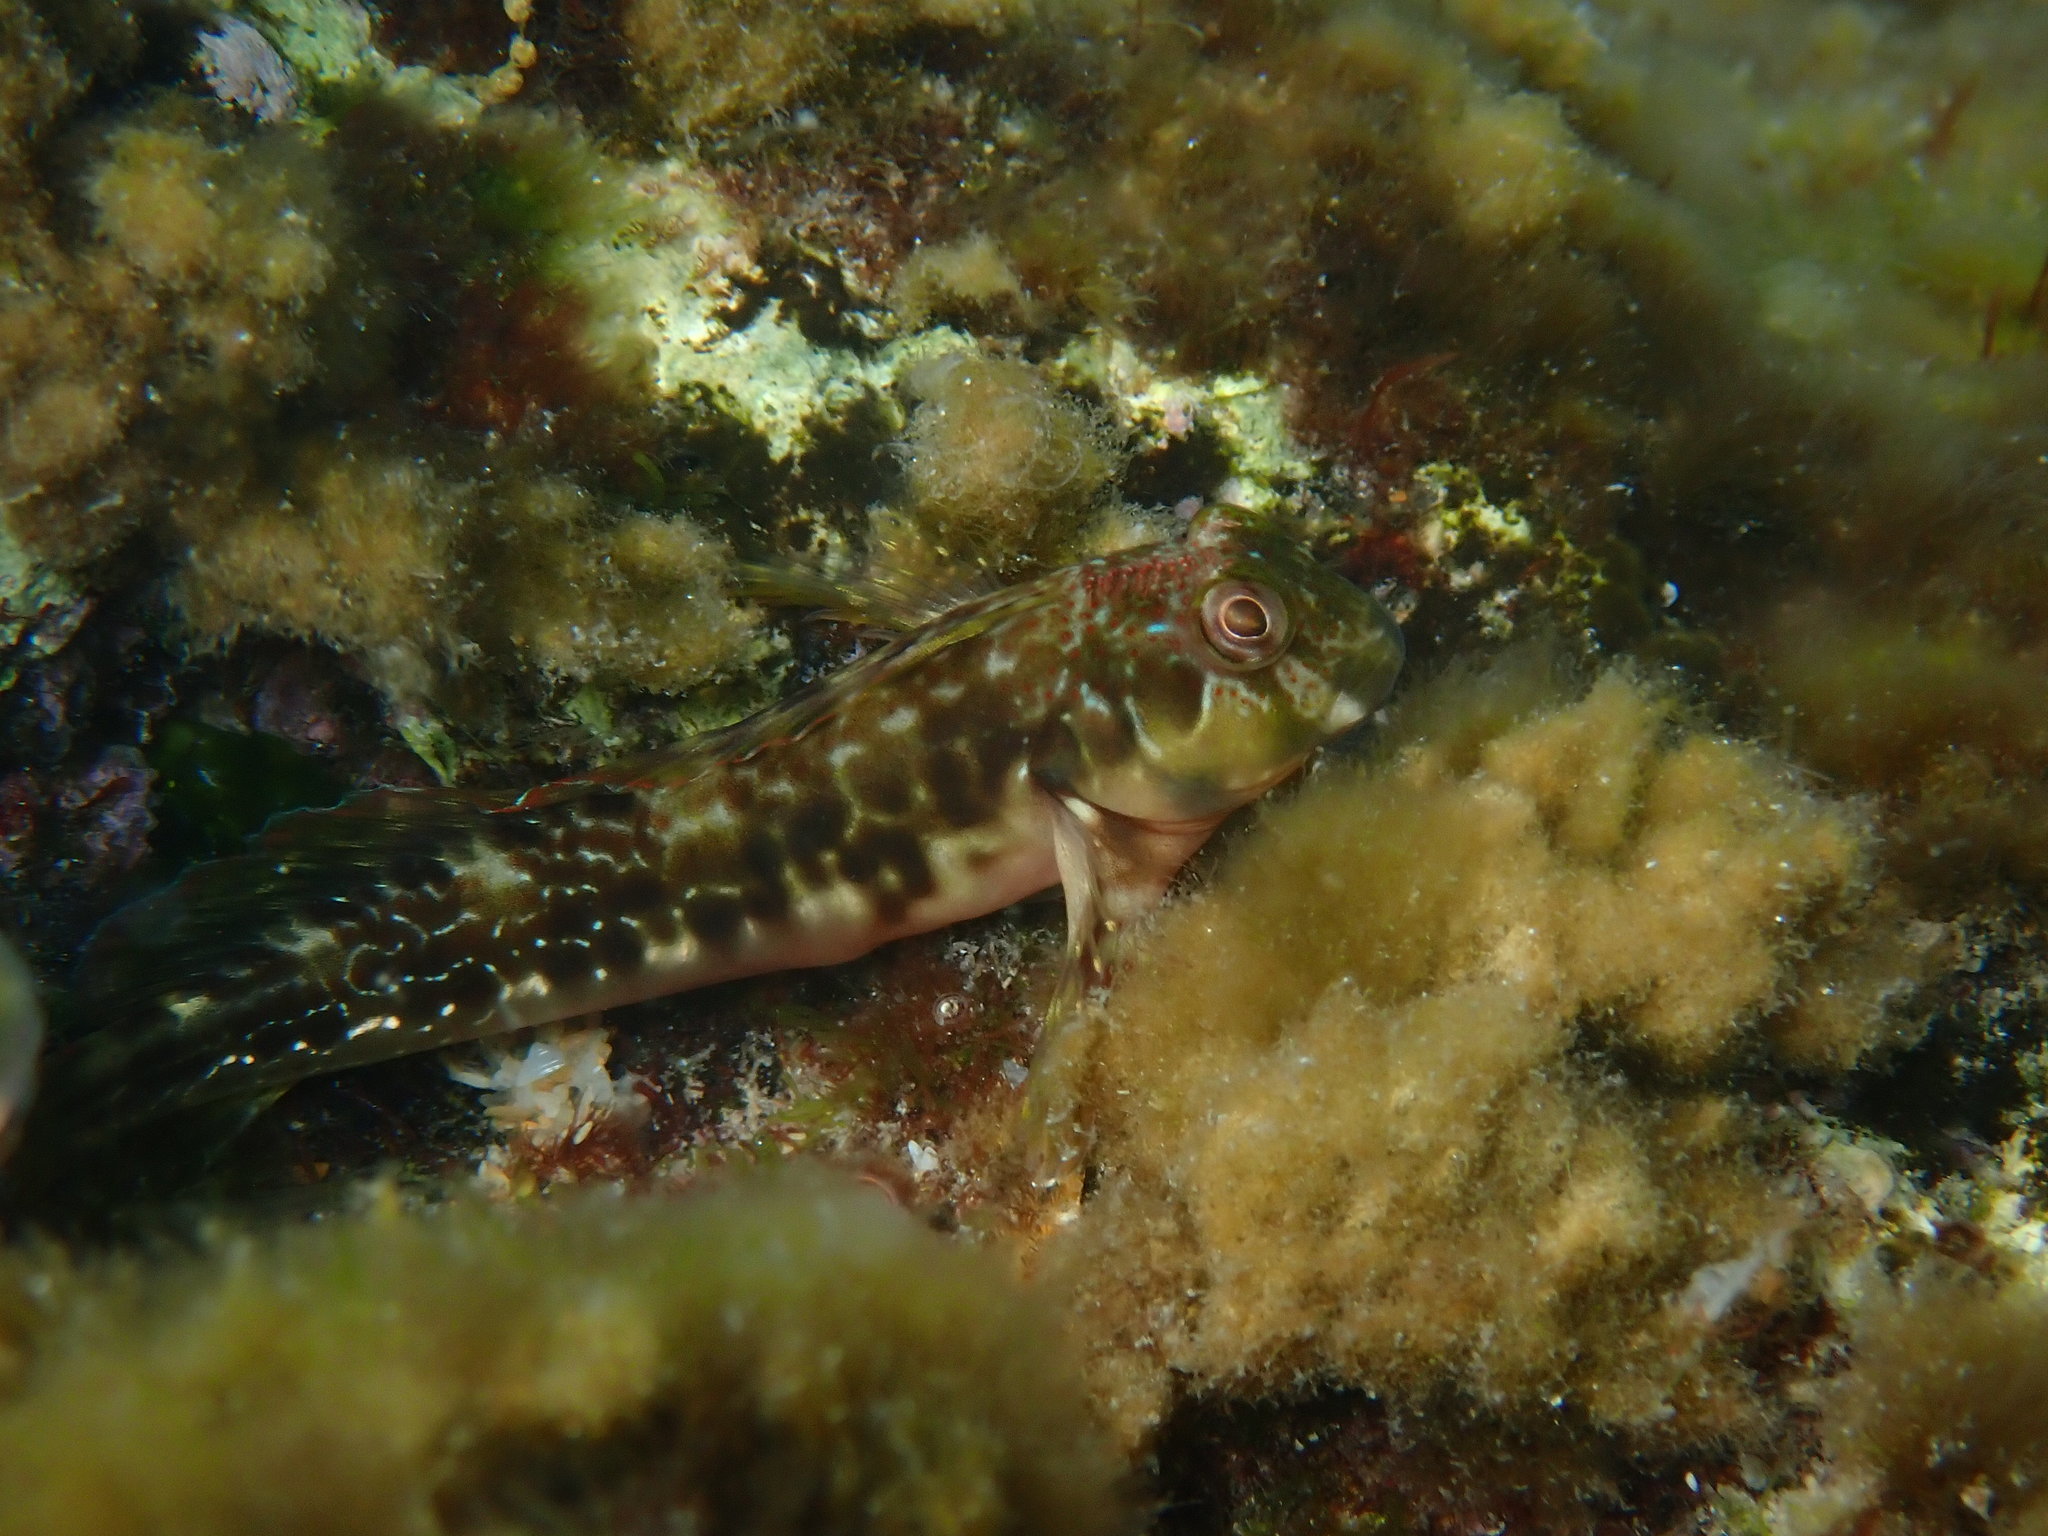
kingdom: Animalia
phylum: Chordata
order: Perciformes
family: Blenniidae
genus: Scartella
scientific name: Scartella cristata
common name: Molly miller
